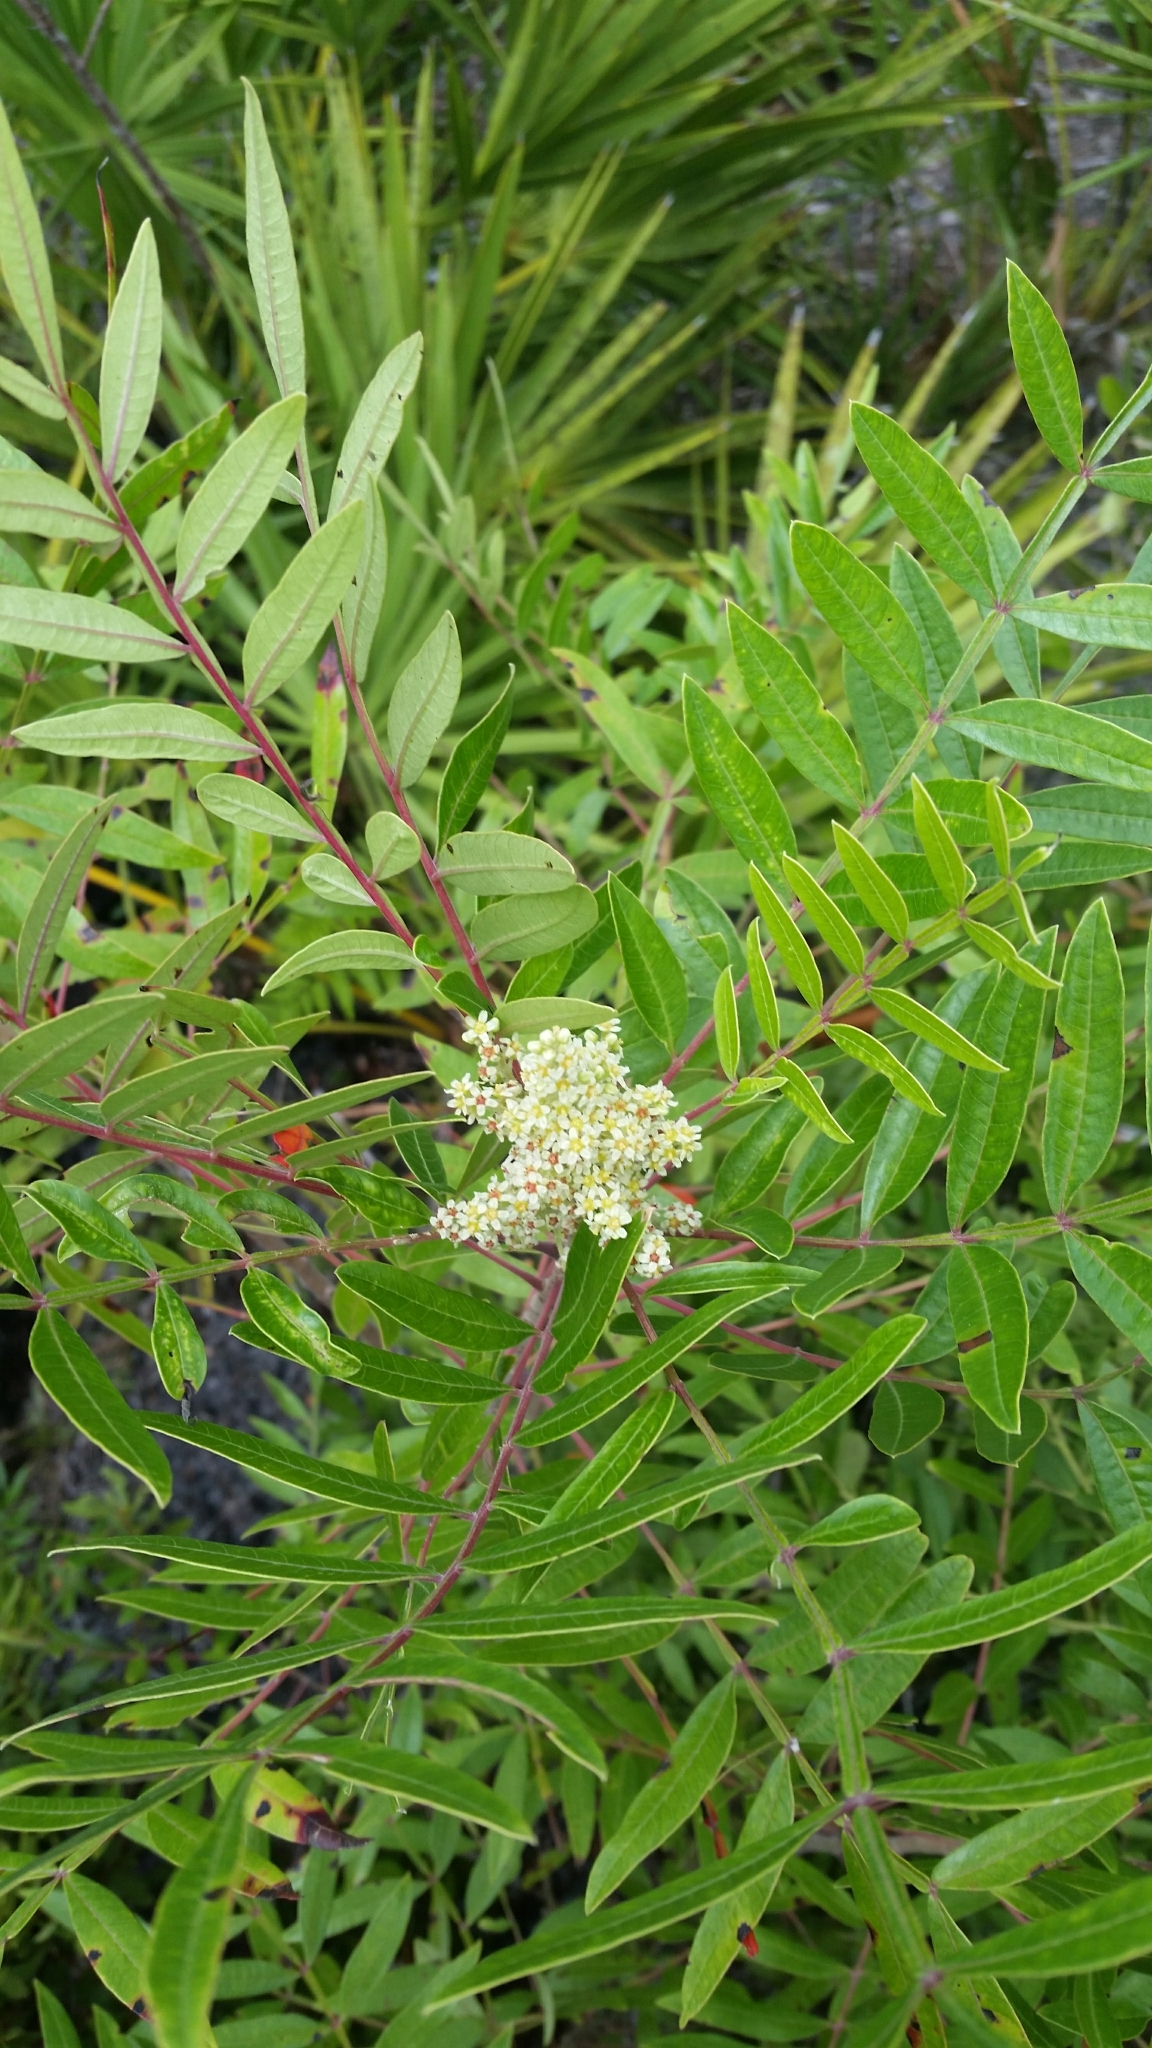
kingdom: Plantae
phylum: Tracheophyta
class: Magnoliopsida
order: Sapindales
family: Anacardiaceae
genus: Rhus
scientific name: Rhus copallina
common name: Shining sumac
